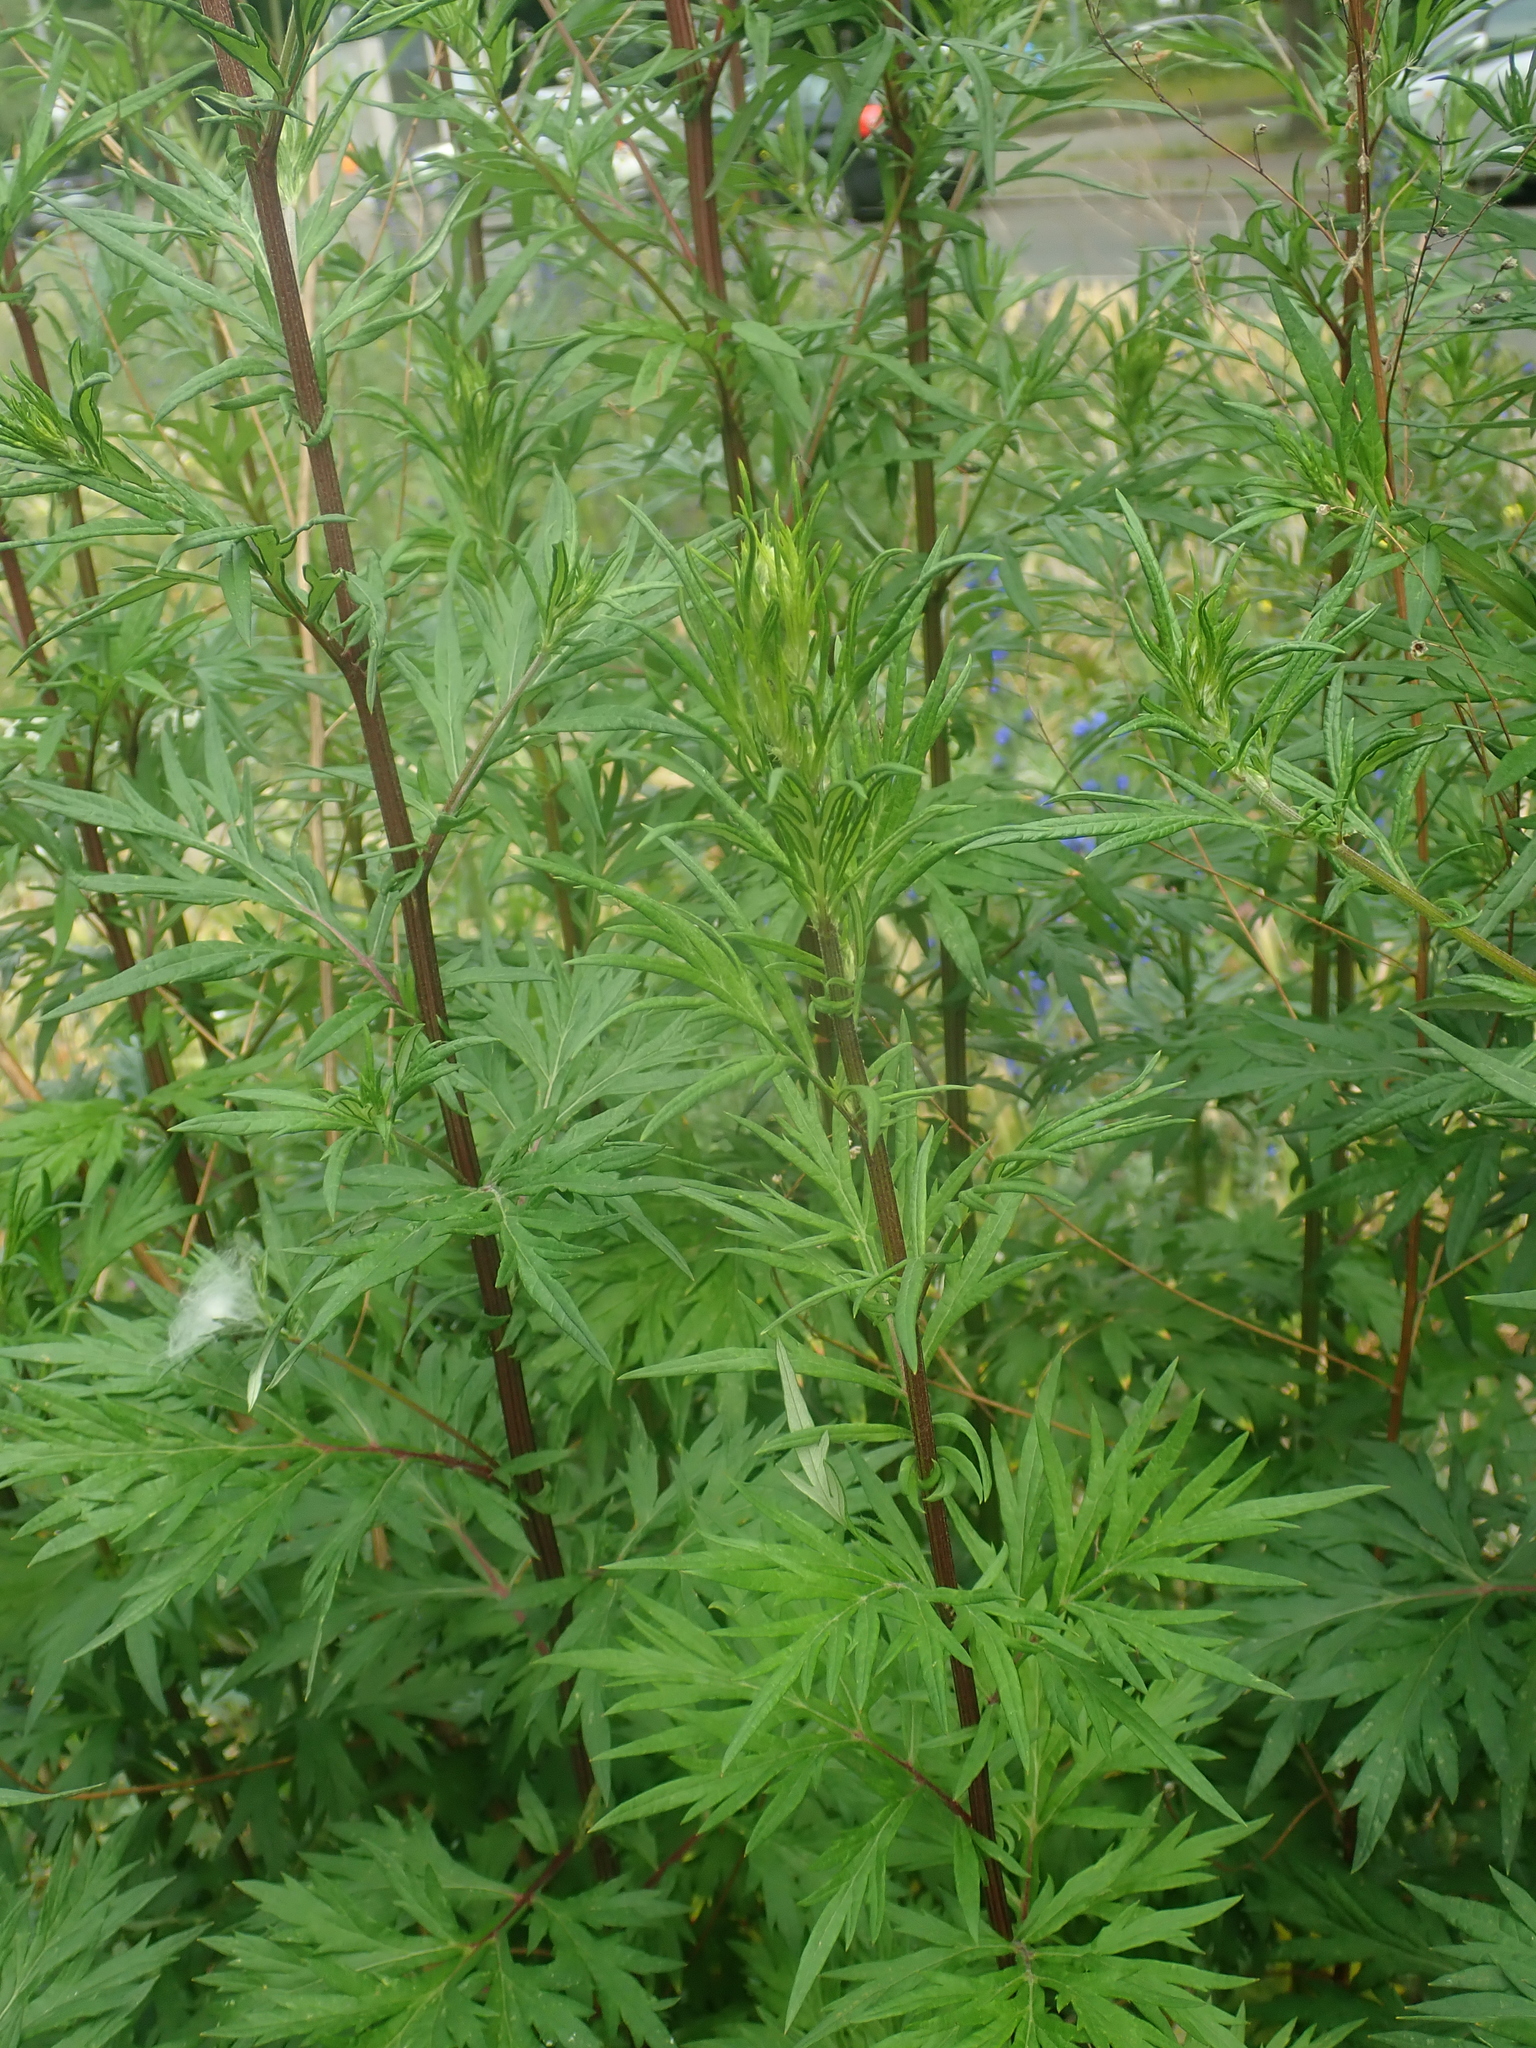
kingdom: Plantae
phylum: Tracheophyta
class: Magnoliopsida
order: Asterales
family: Asteraceae
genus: Artemisia
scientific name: Artemisia vulgaris
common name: Mugwort
